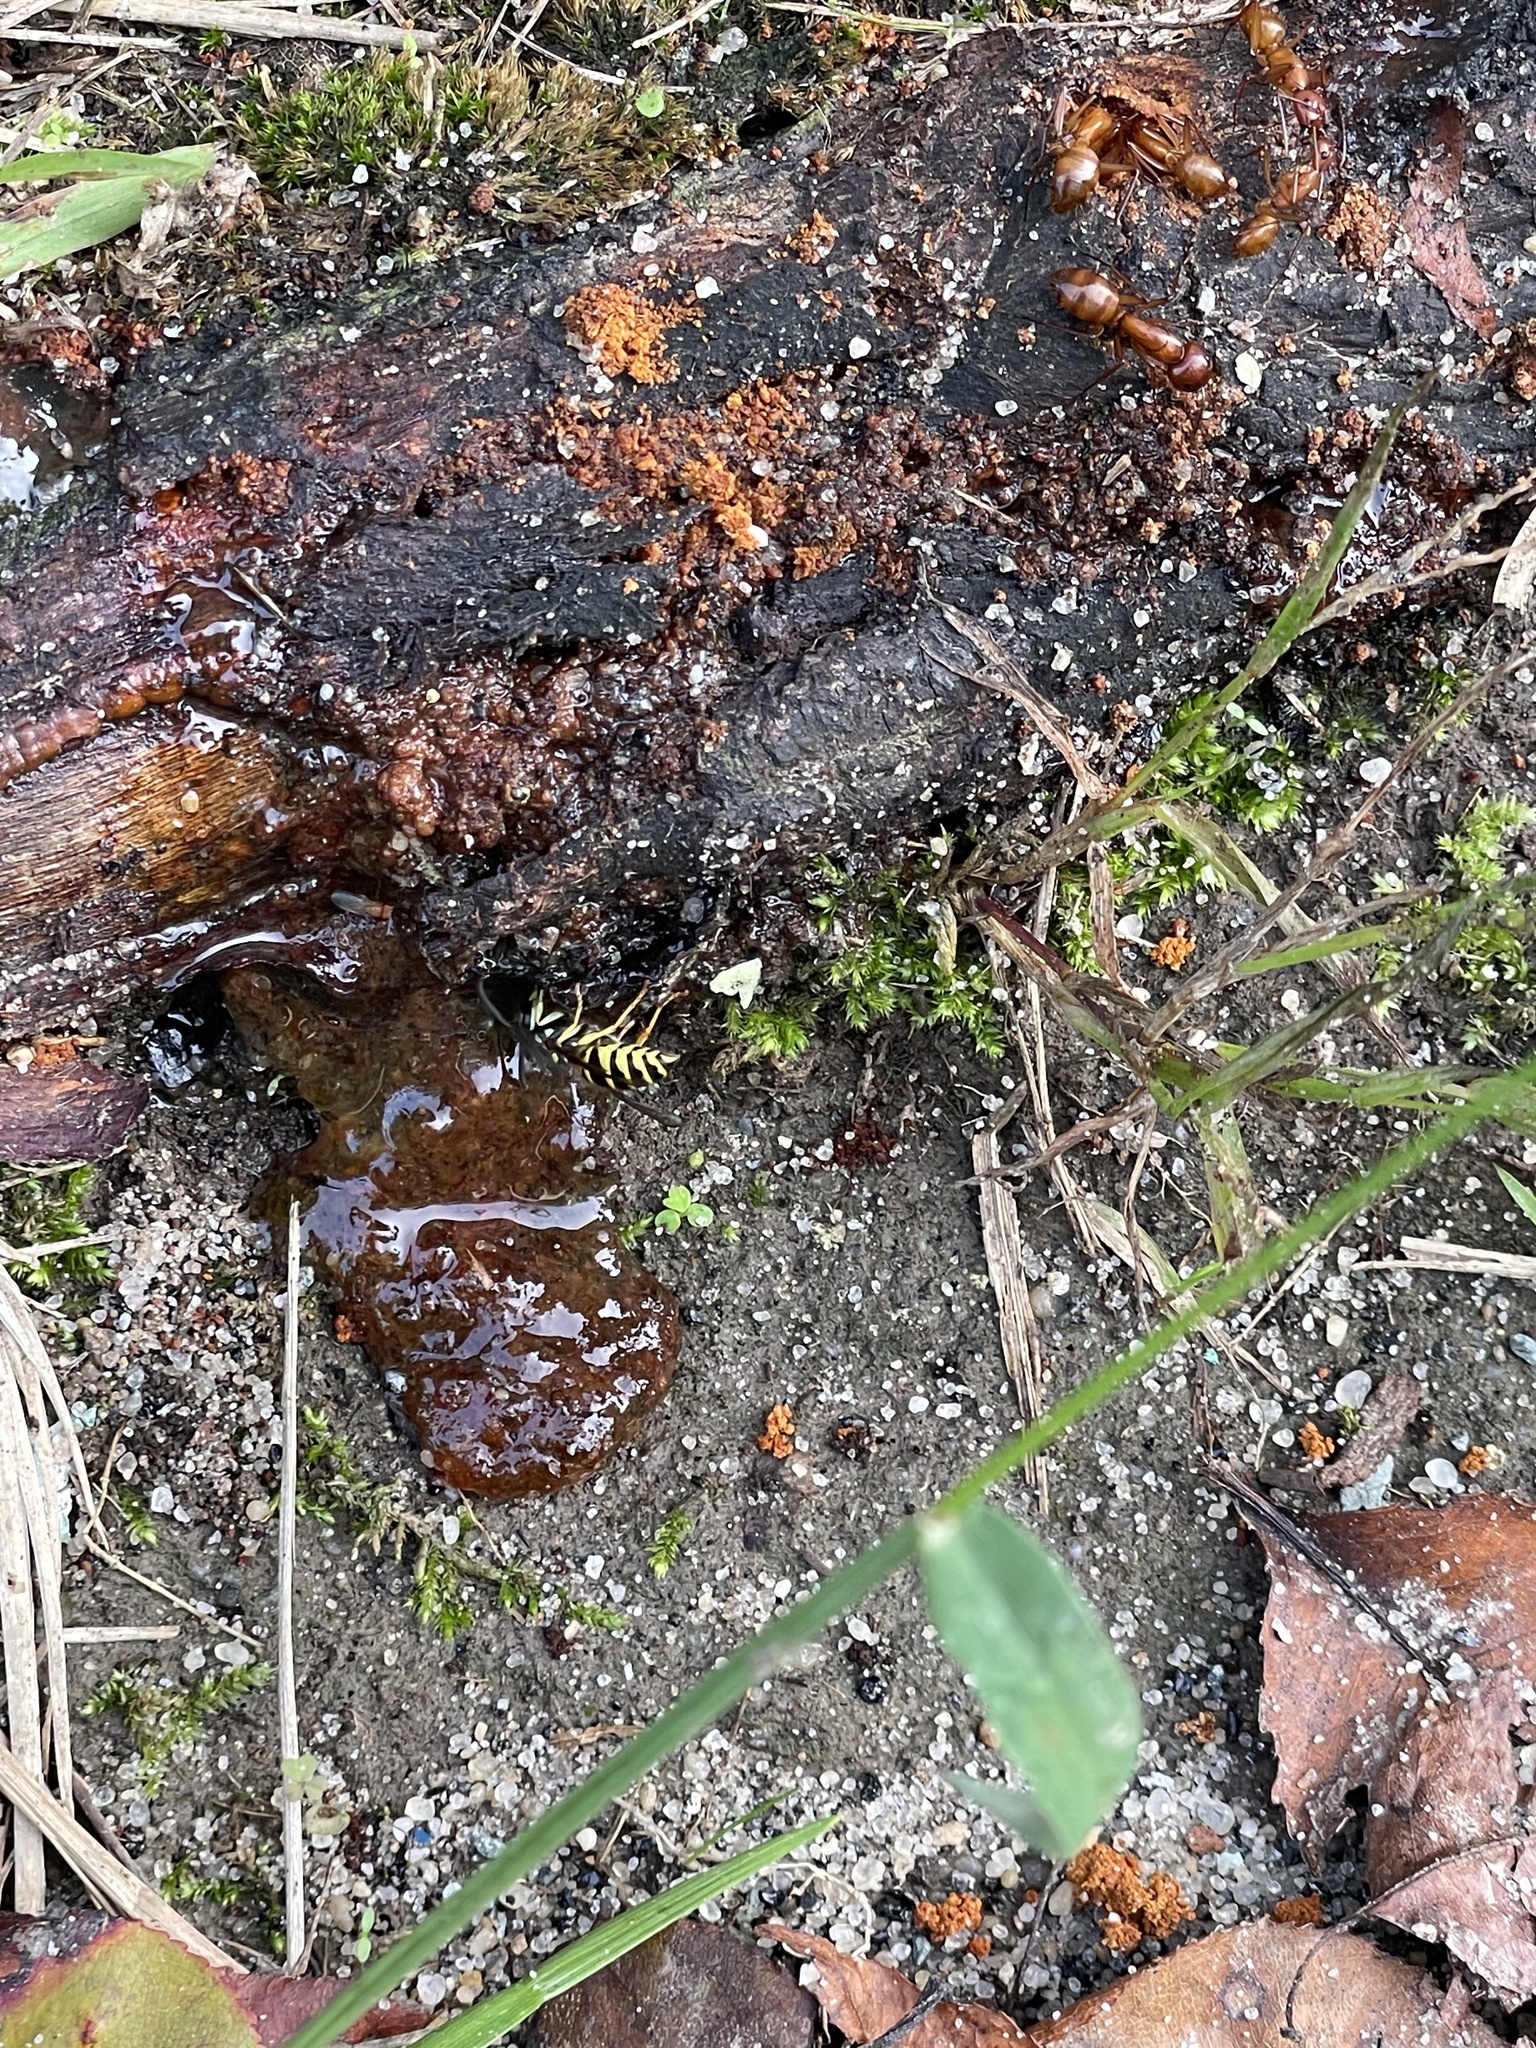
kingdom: Animalia
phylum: Arthropoda
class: Insecta
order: Hymenoptera
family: Vespidae
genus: Vespula
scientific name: Vespula
